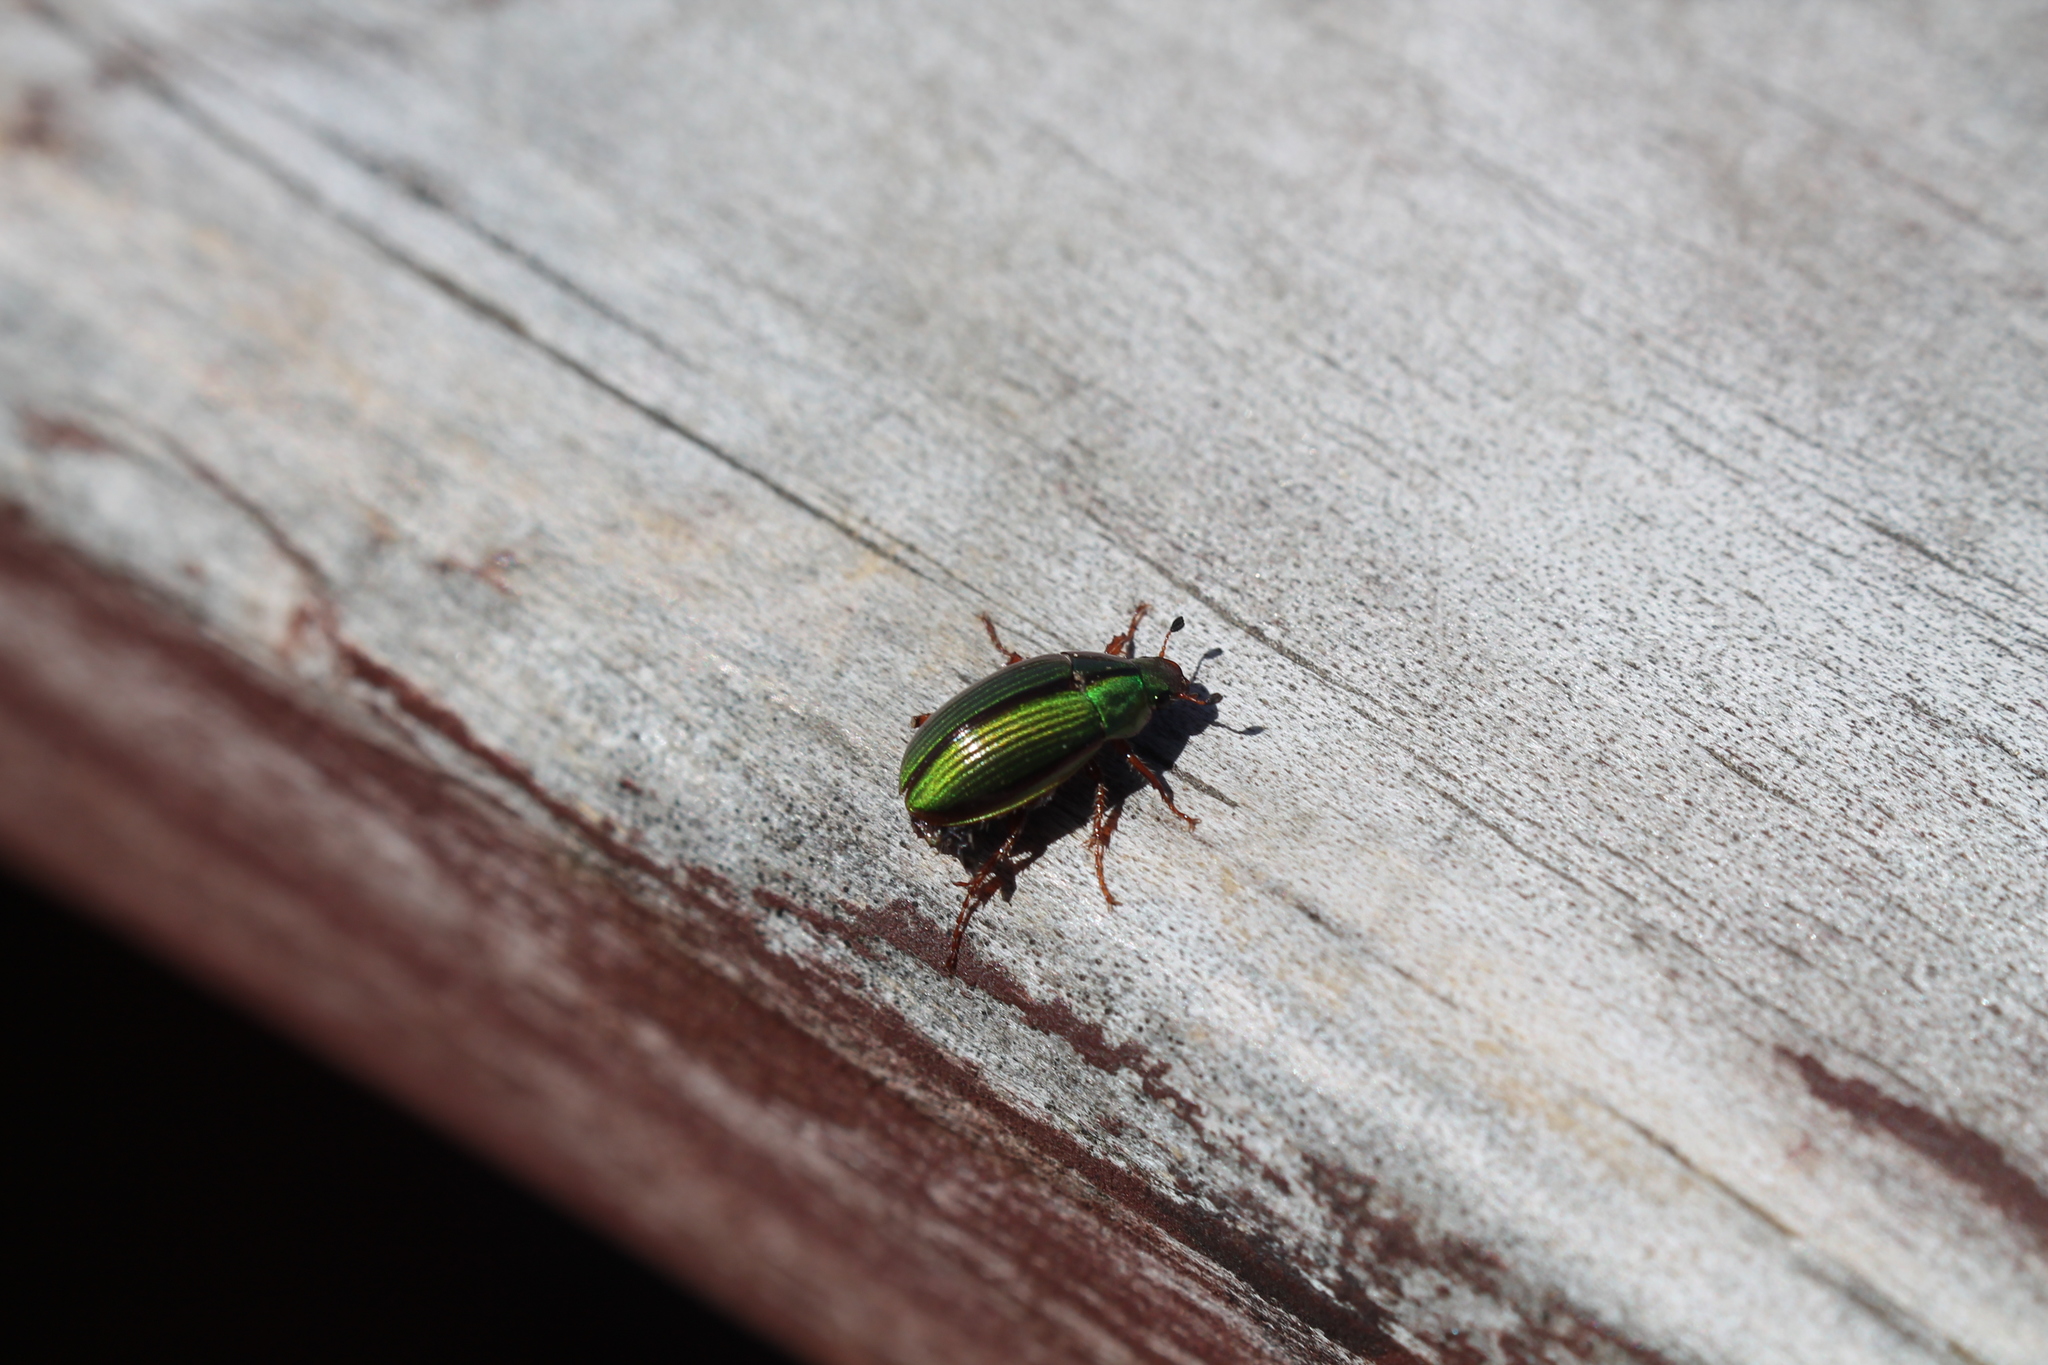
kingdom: Animalia
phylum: Arthropoda
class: Insecta
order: Coleoptera
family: Scarabaeidae
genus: Pyronota
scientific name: Pyronota festiva
